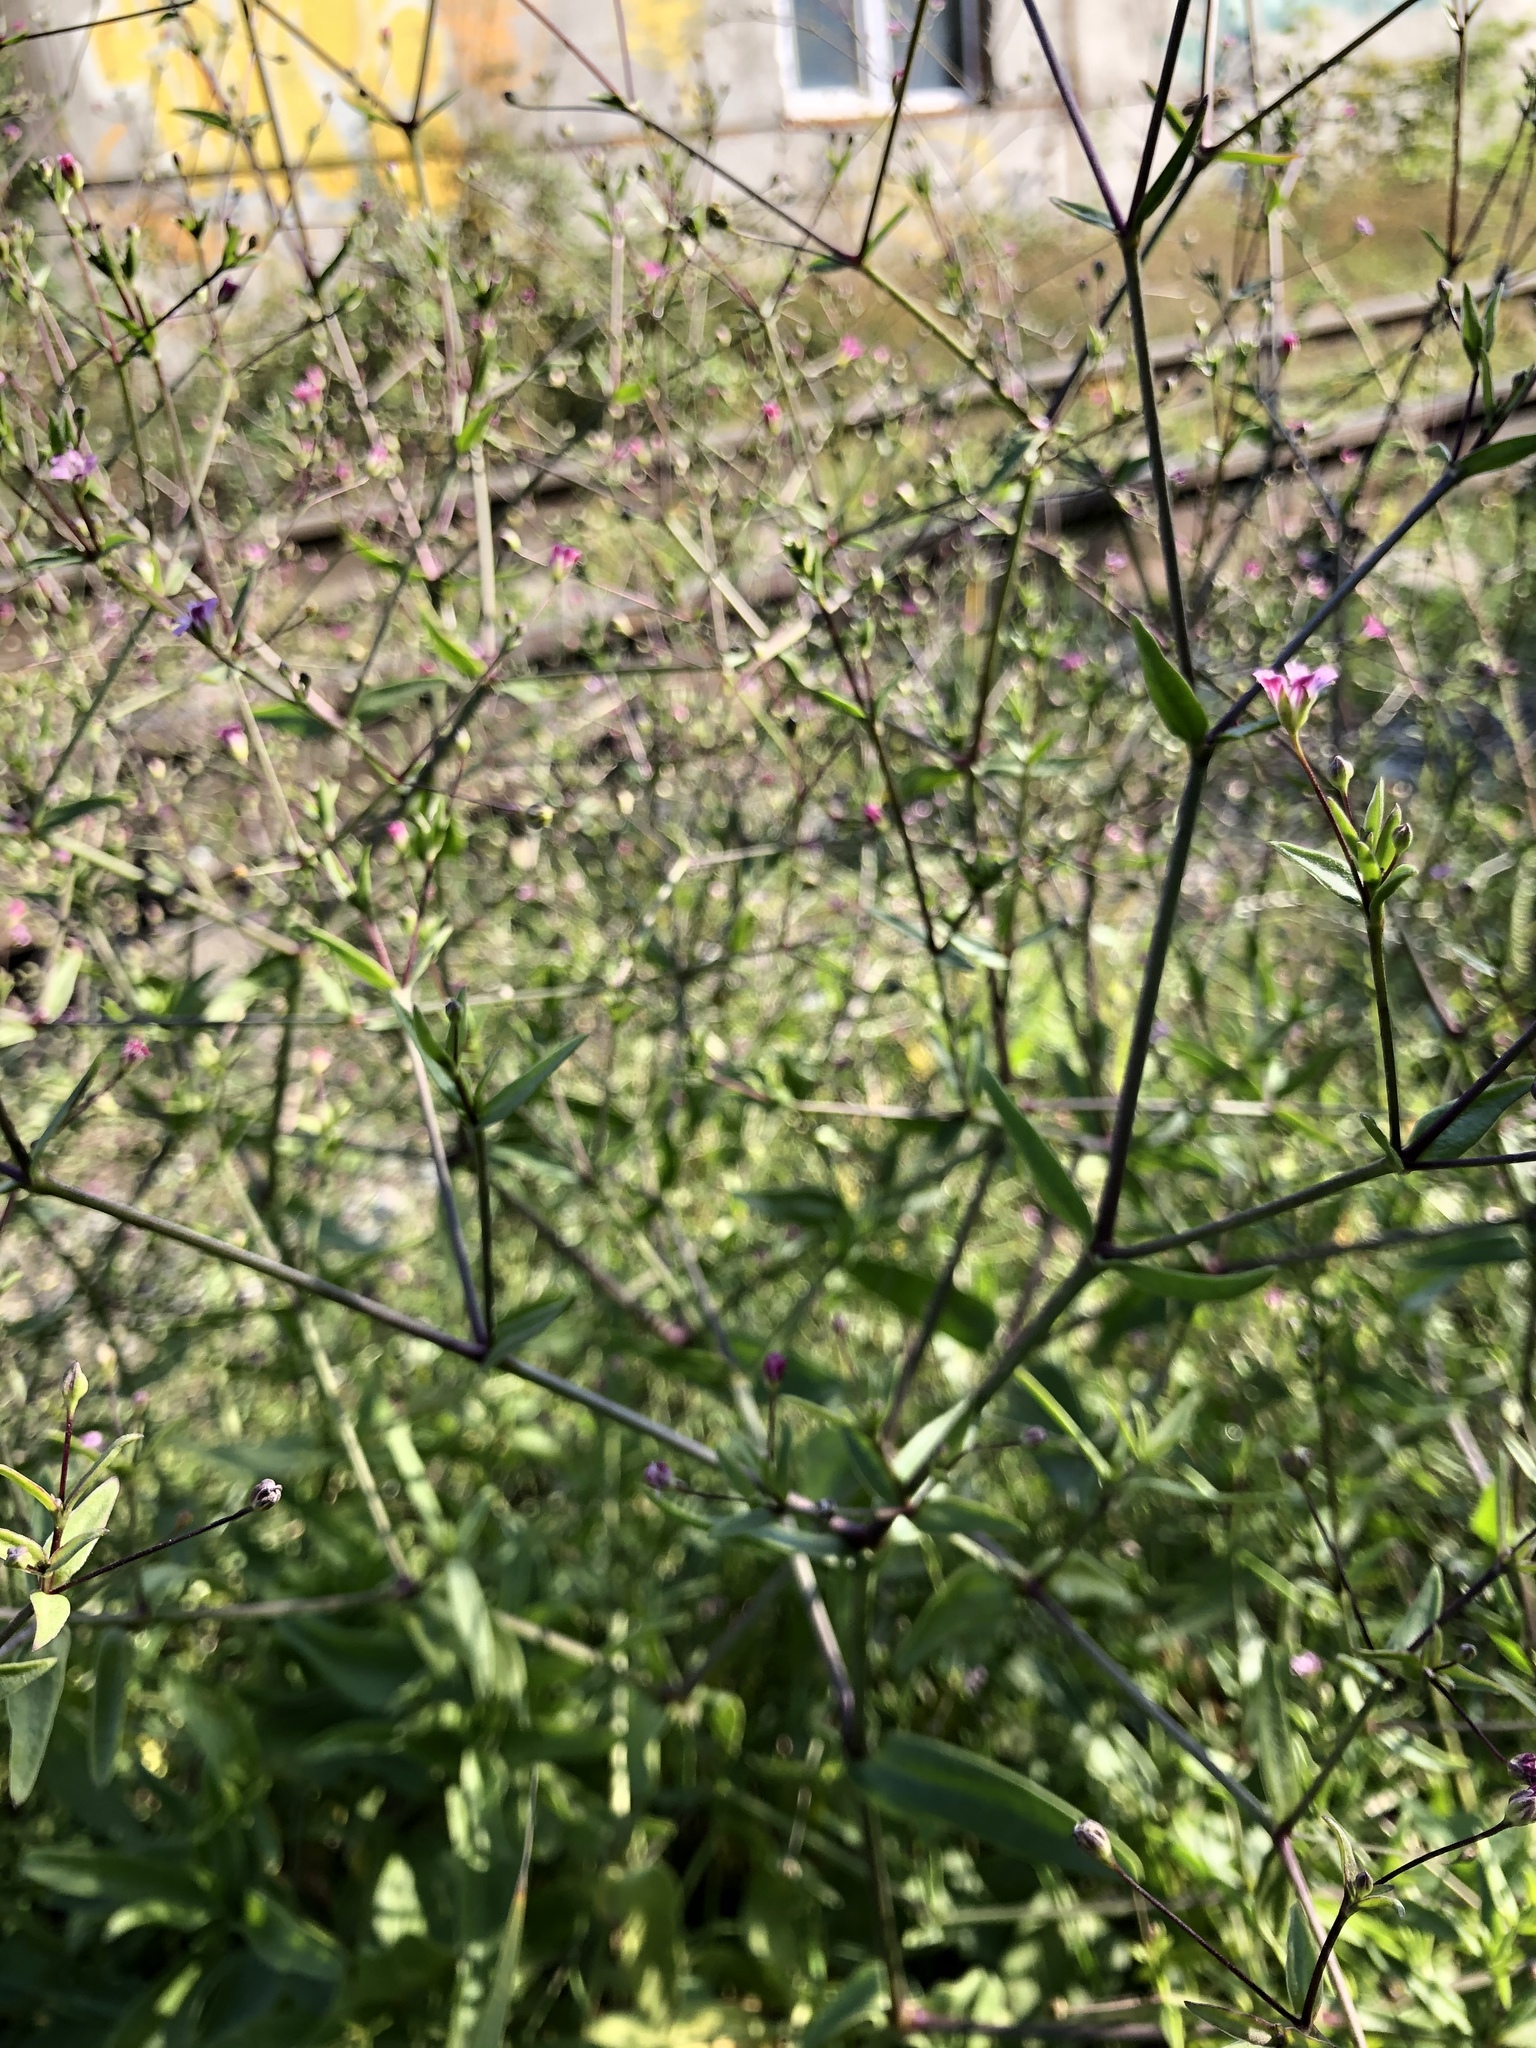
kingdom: Plantae
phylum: Tracheophyta
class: Magnoliopsida
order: Caryophyllales
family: Caryophyllaceae
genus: Gypsophila
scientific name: Gypsophila perfoliata
